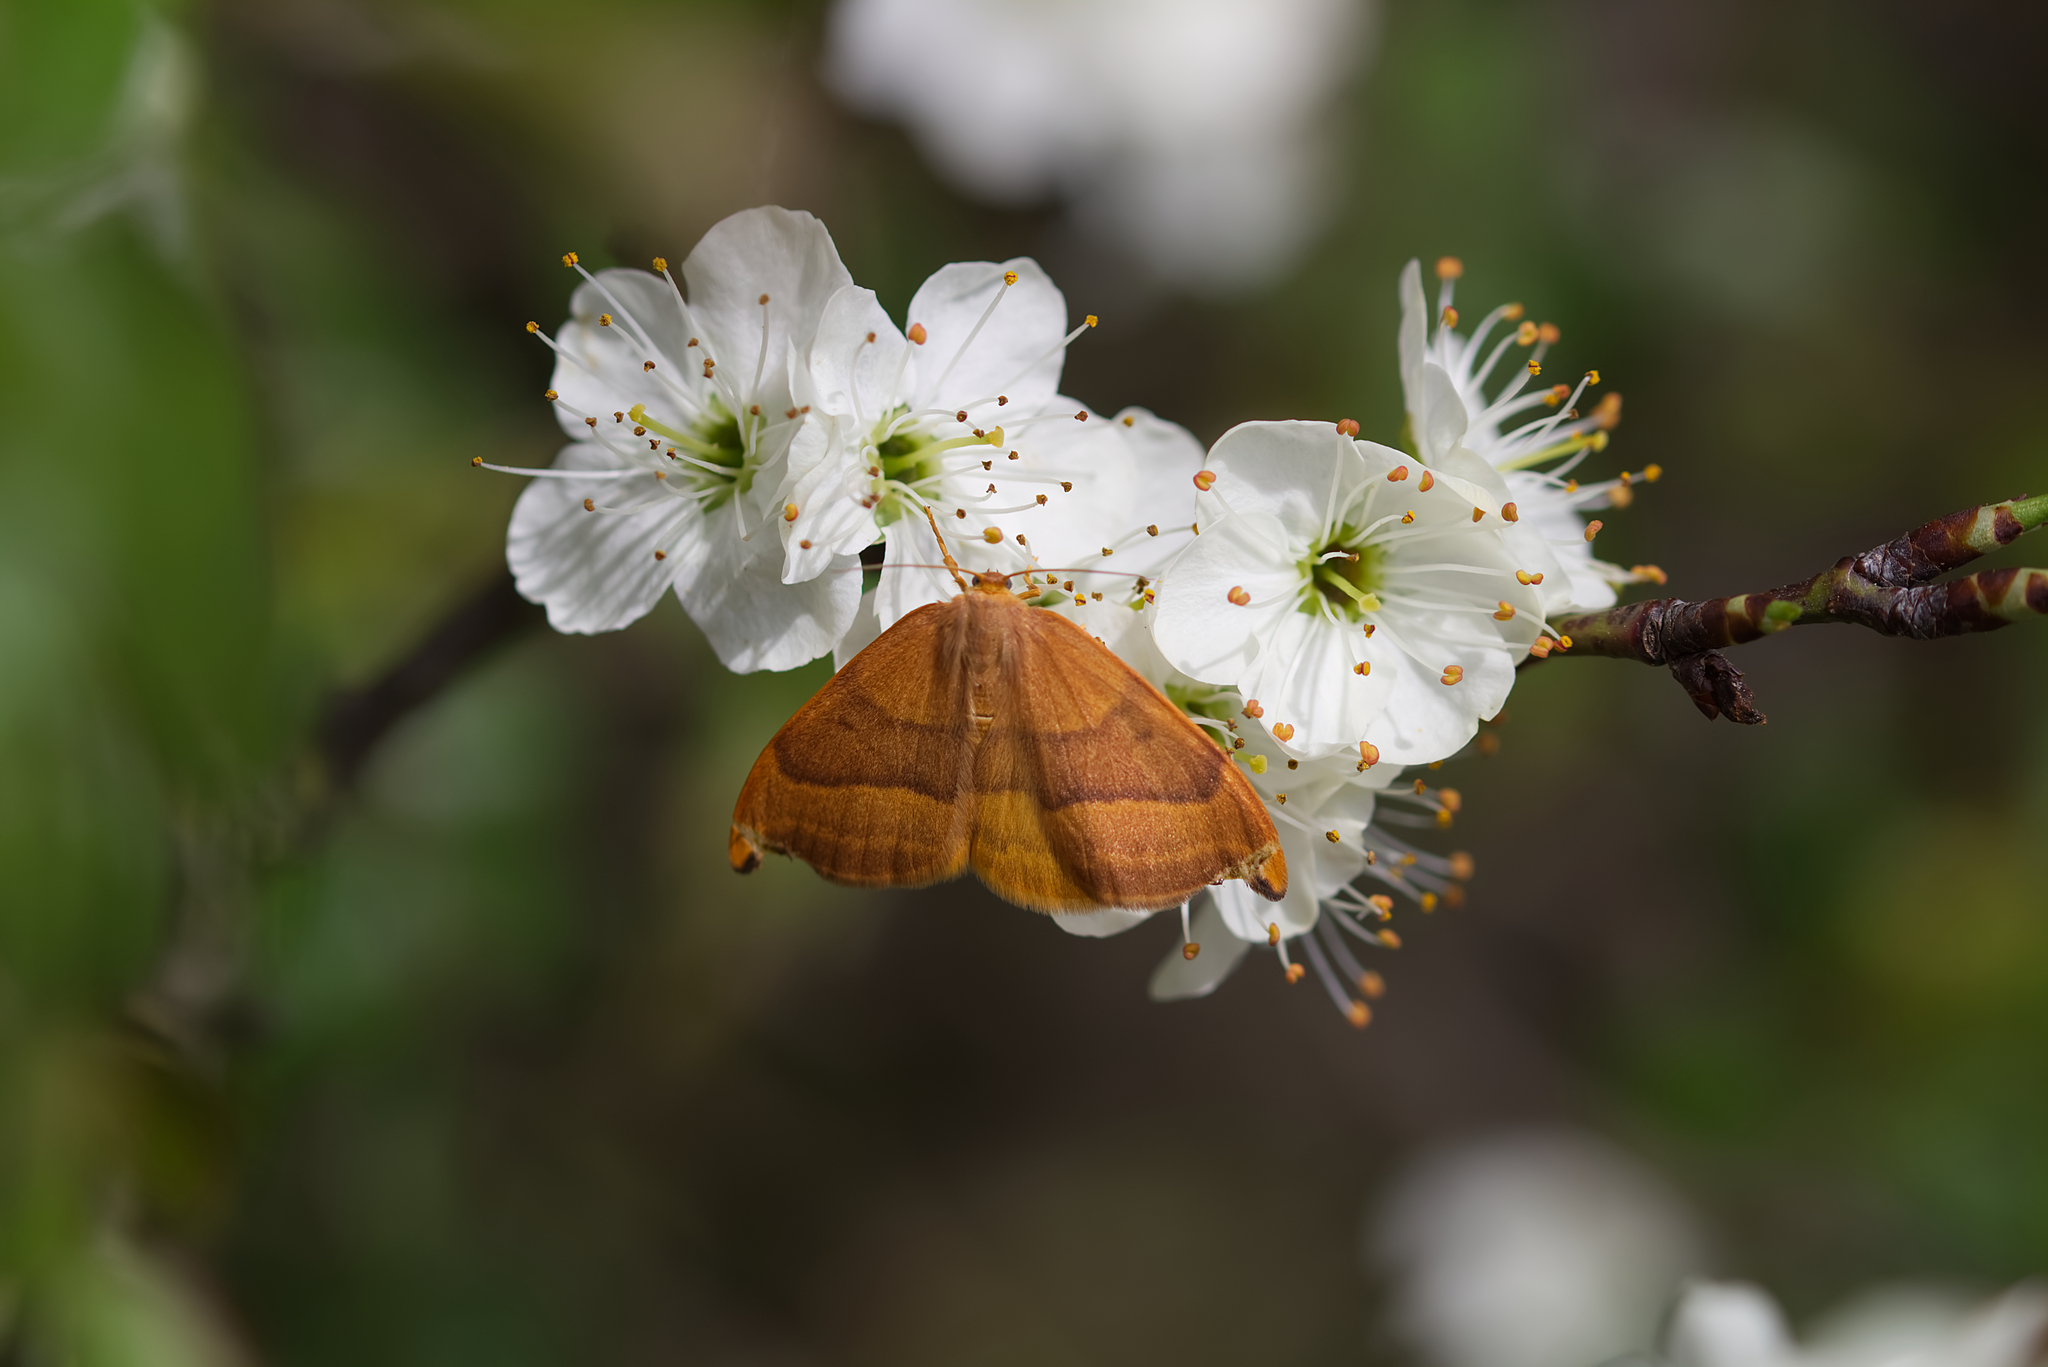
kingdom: Animalia
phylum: Arthropoda
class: Insecta
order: Lepidoptera
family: Drepanidae
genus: Watsonalla
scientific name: Watsonalla cultraria
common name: Barred hook-tip
